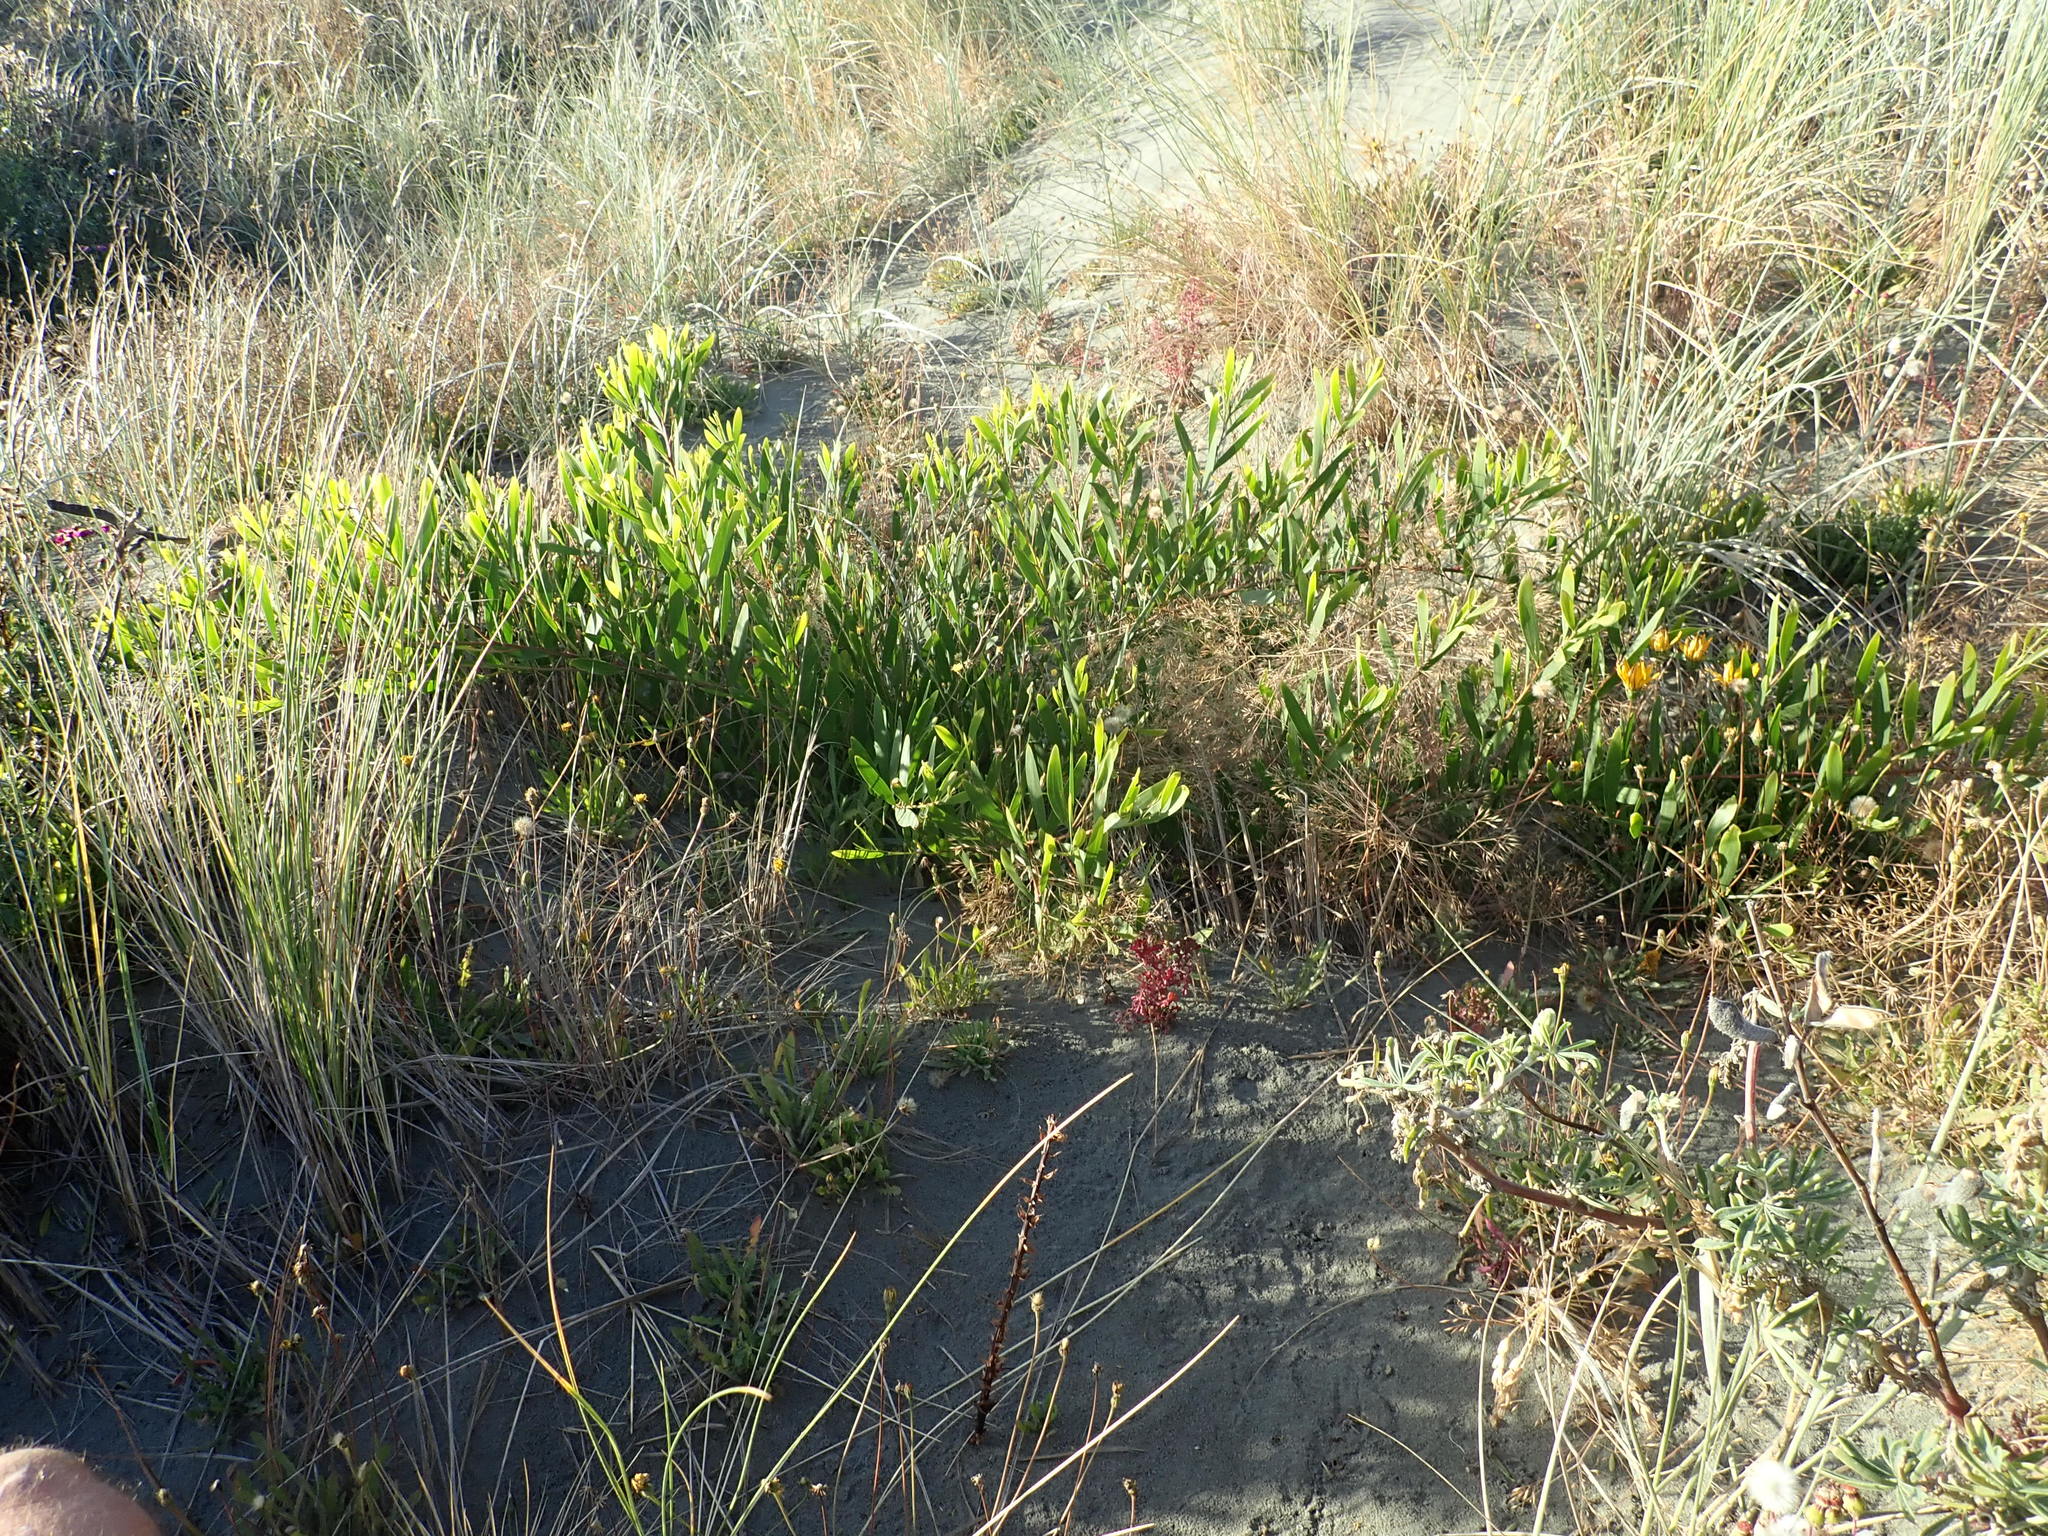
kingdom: Plantae
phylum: Tracheophyta
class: Magnoliopsida
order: Fabales
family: Fabaceae
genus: Acacia
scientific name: Acacia longifolia
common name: Sydney golden wattle
